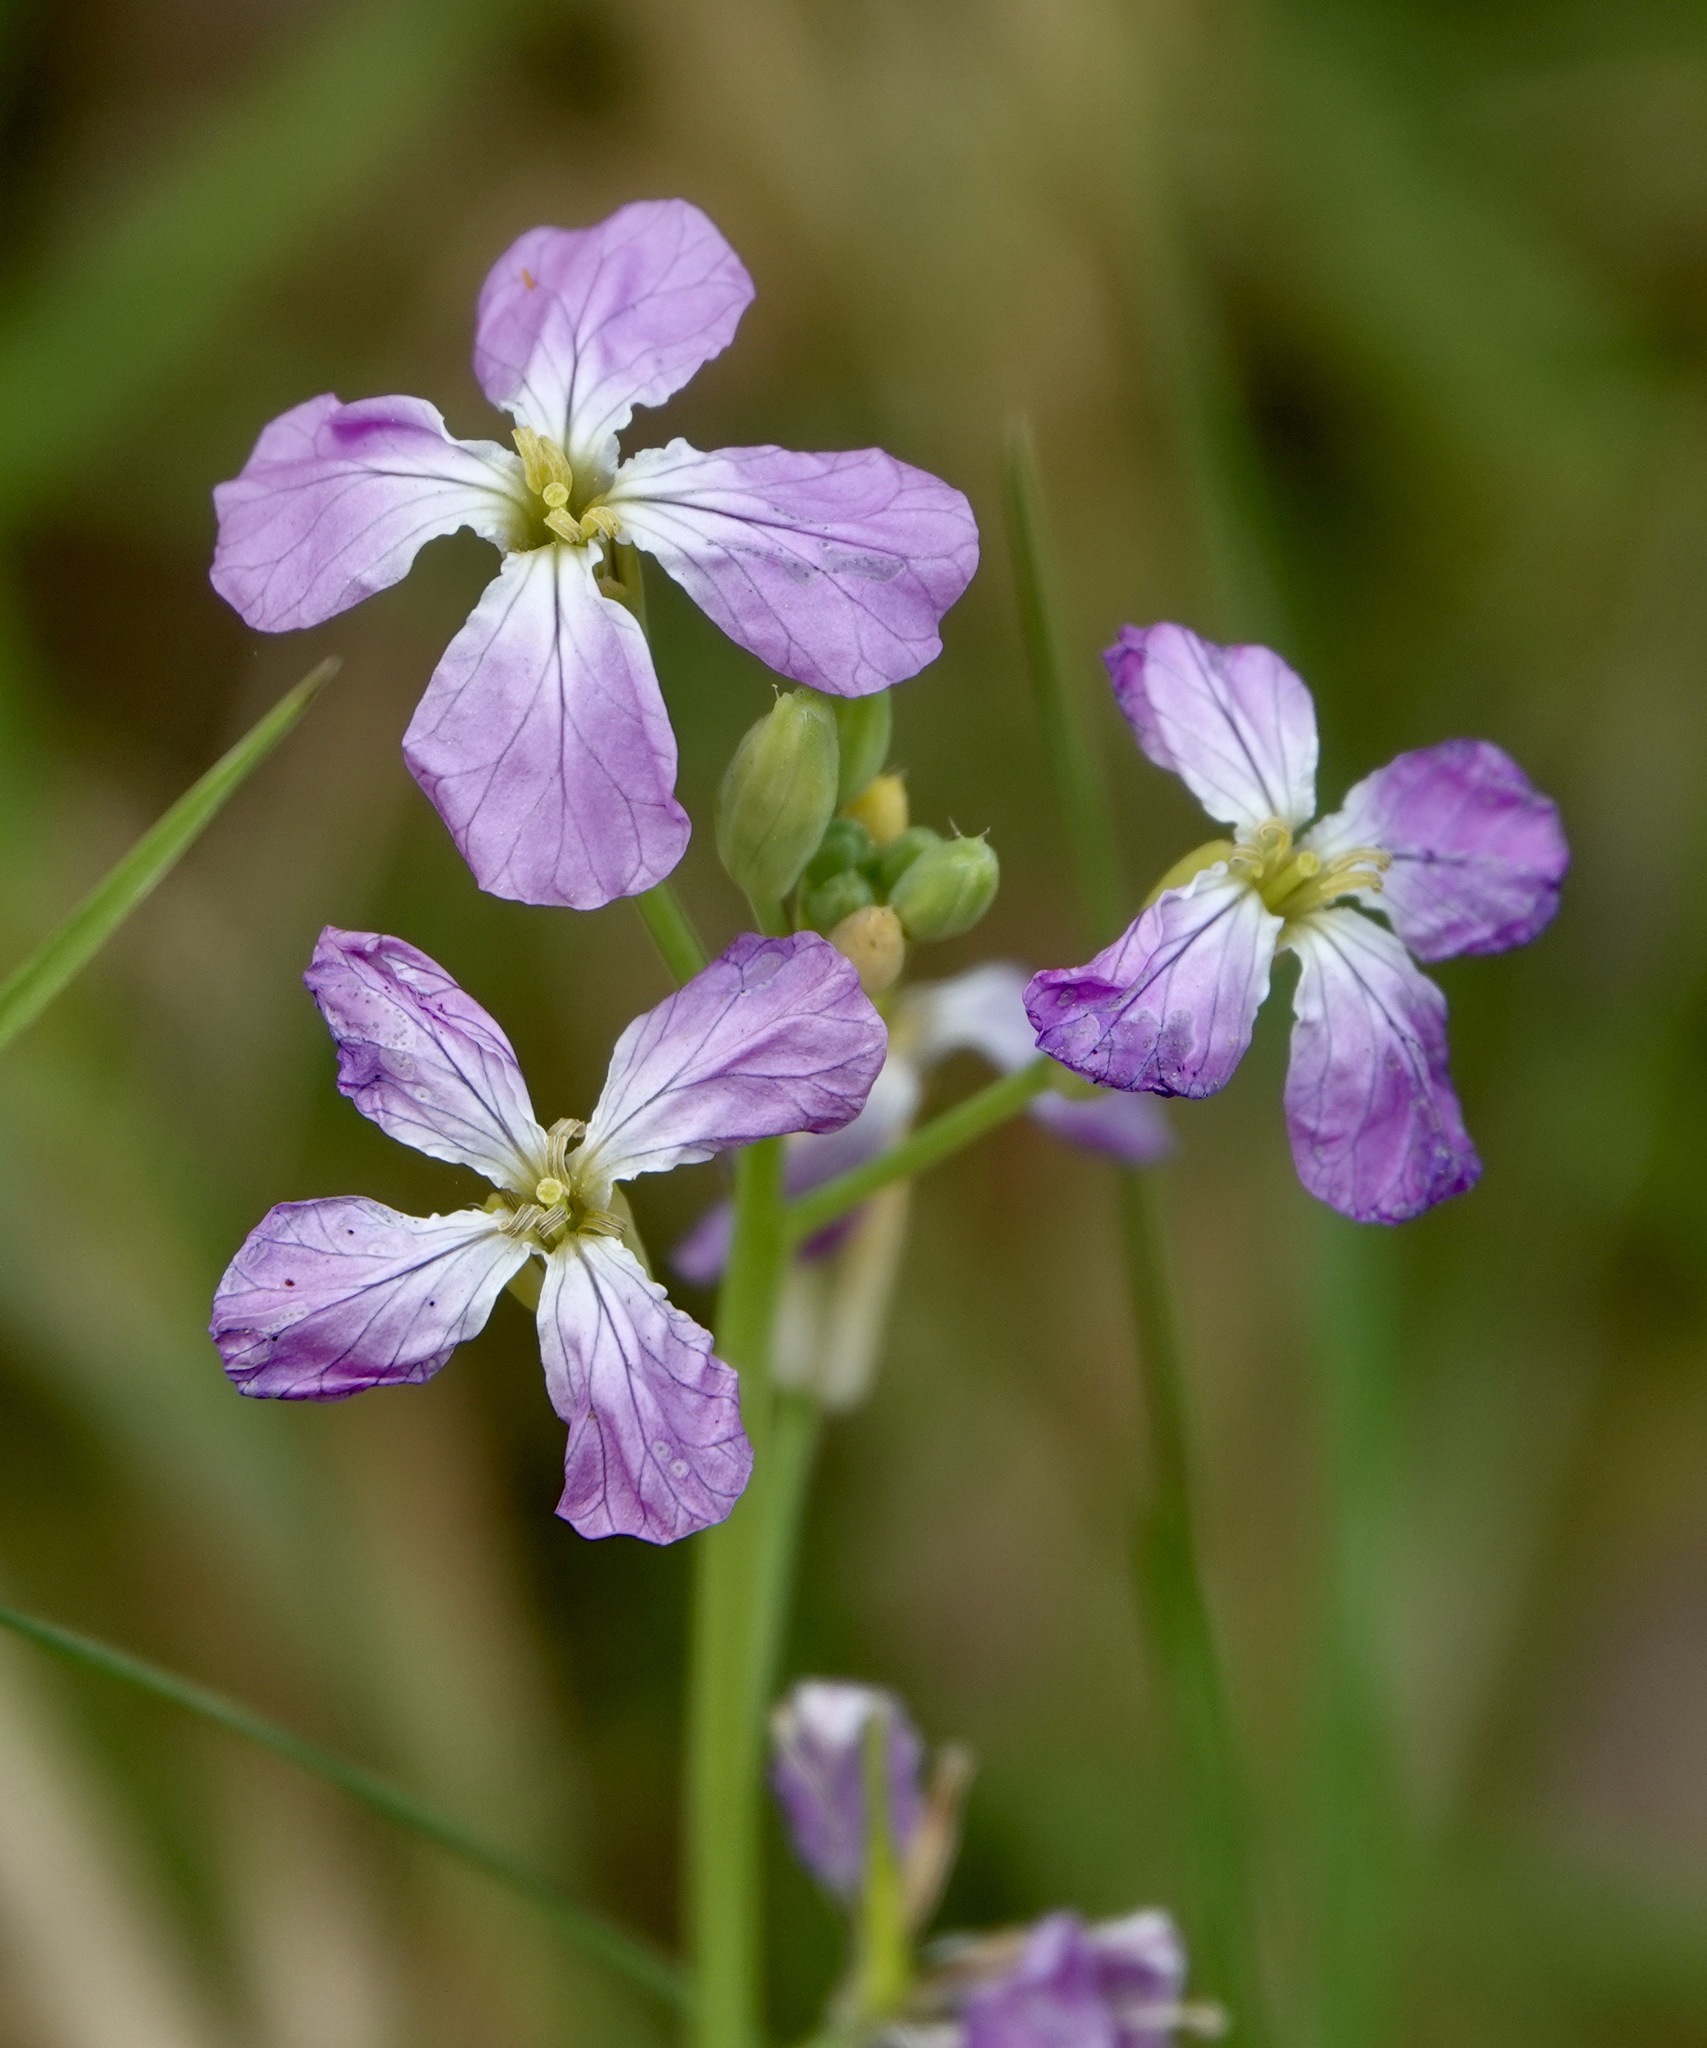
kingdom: Plantae
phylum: Tracheophyta
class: Magnoliopsida
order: Brassicales
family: Brassicaceae
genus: Raphanus
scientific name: Raphanus sativus
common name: Cultivated radish
